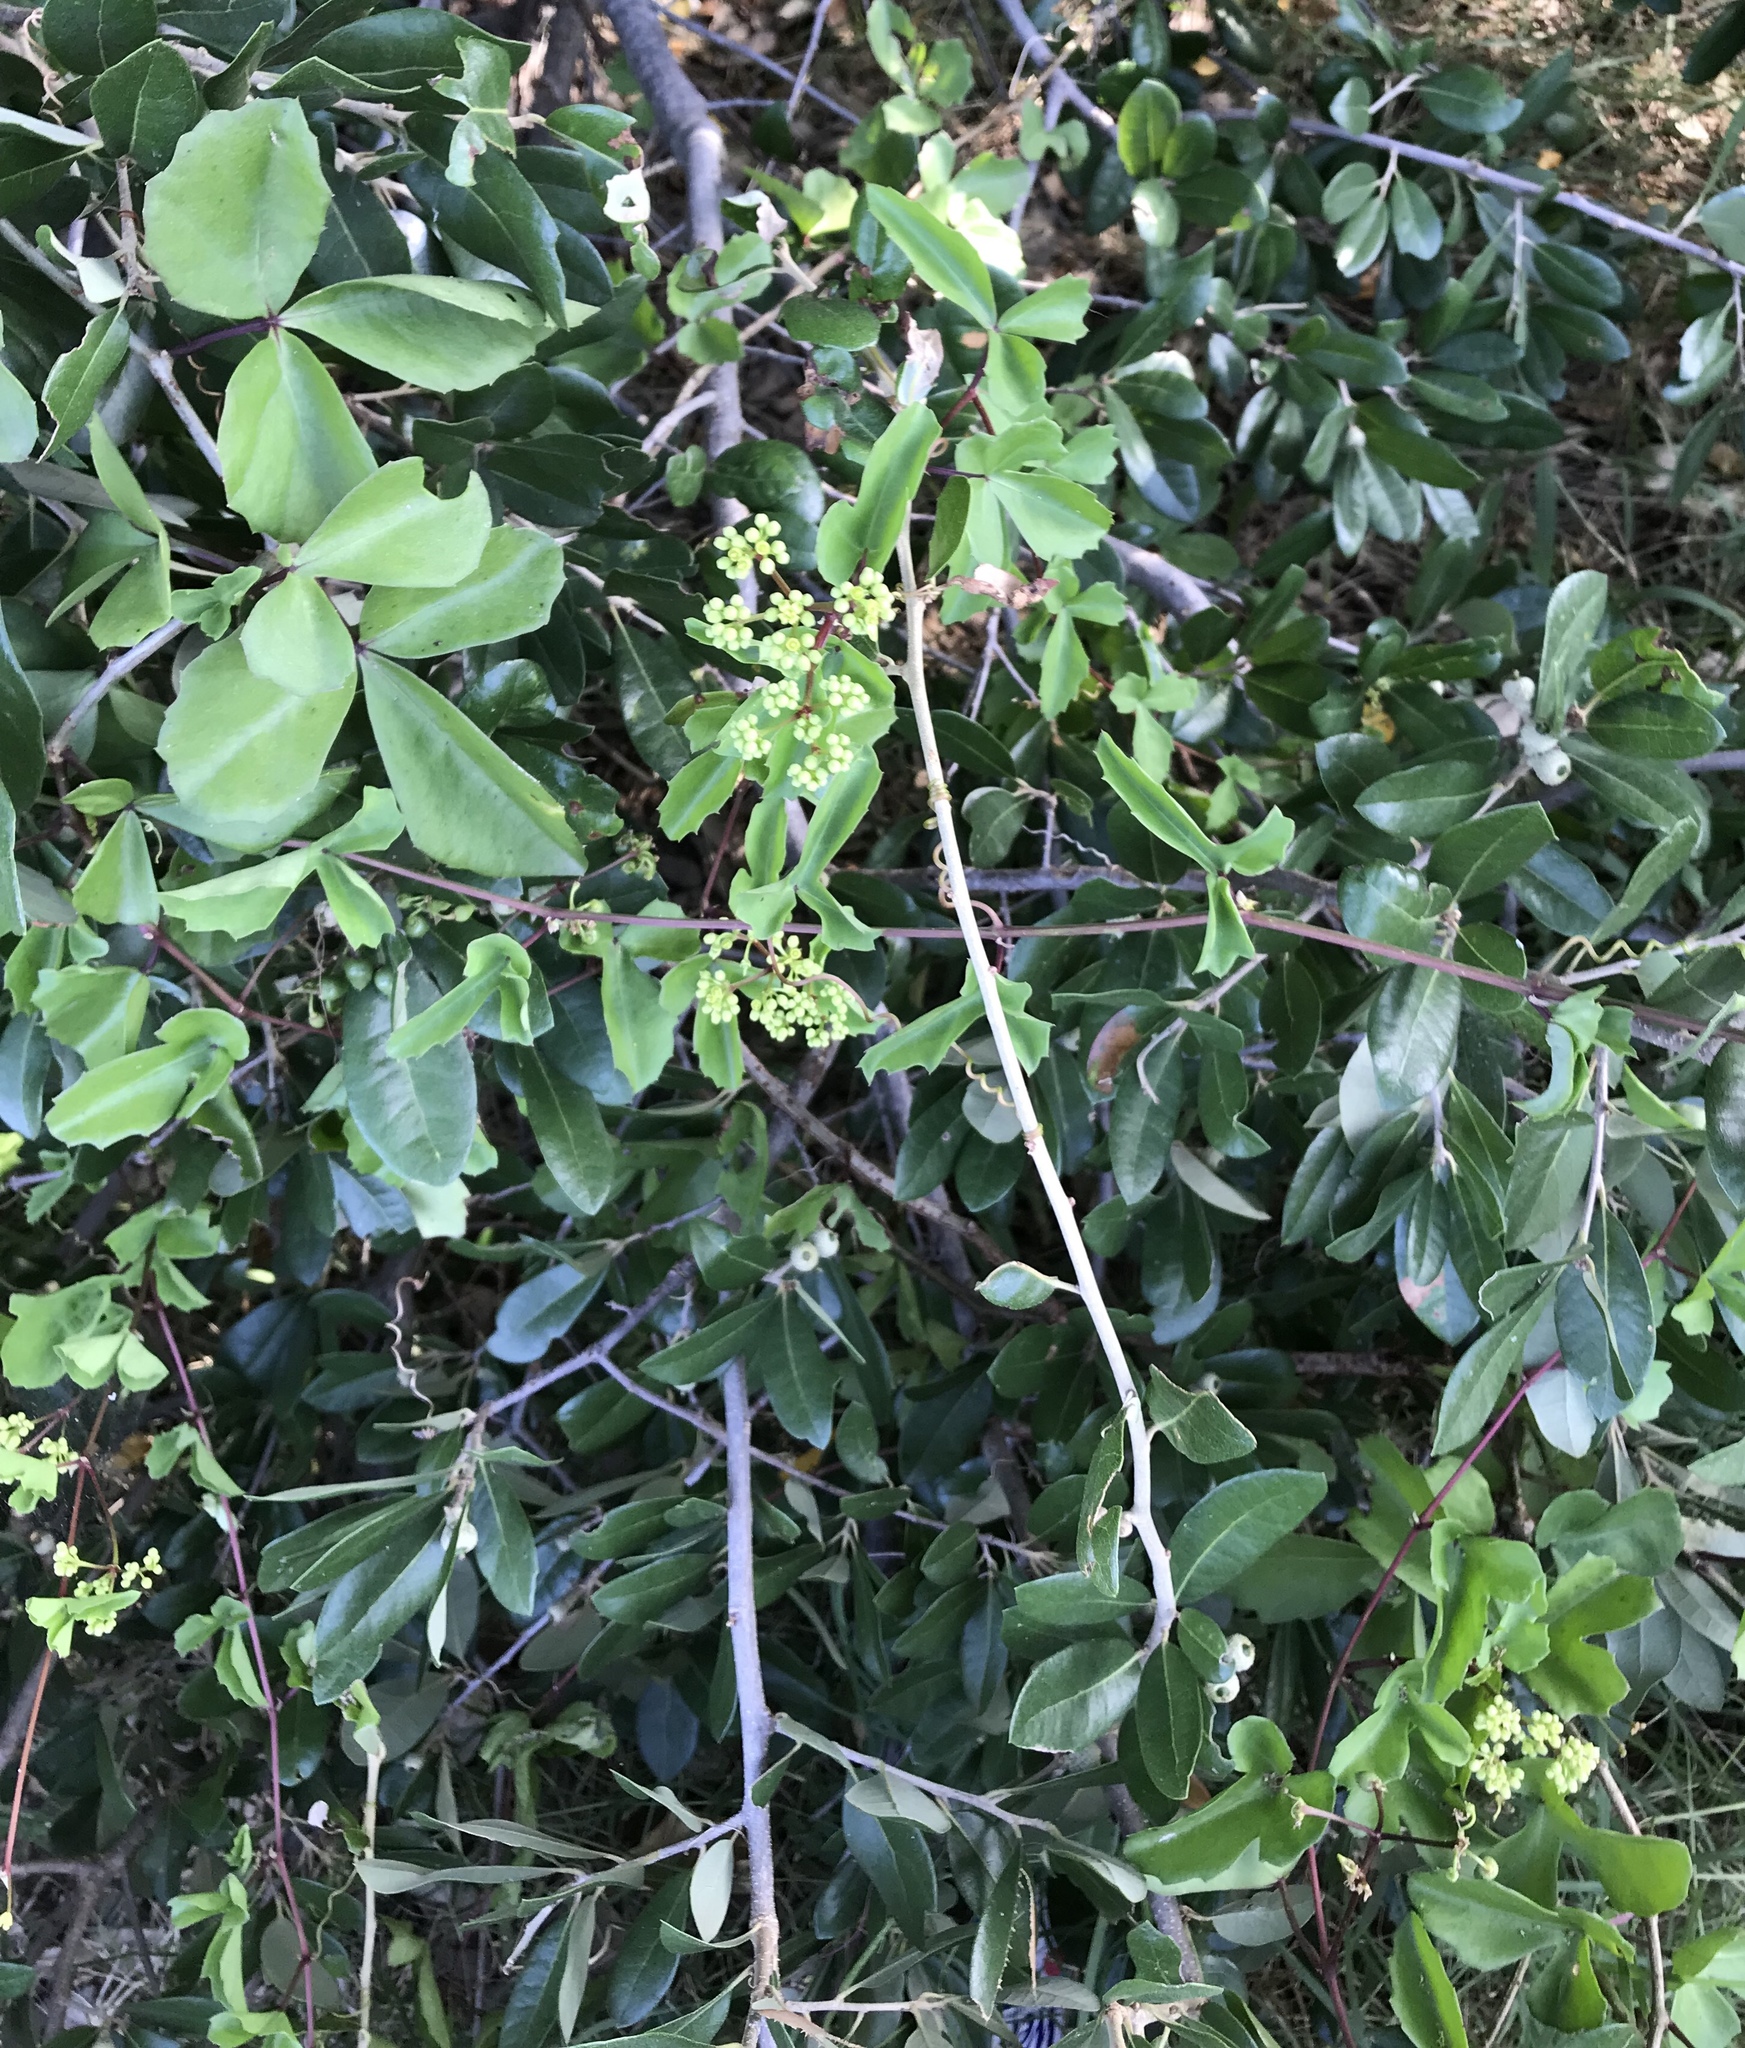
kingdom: Plantae
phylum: Tracheophyta
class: Magnoliopsida
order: Vitales
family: Vitaceae
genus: Cissus
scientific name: Cissus trifoliata
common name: Vine-sorrel
